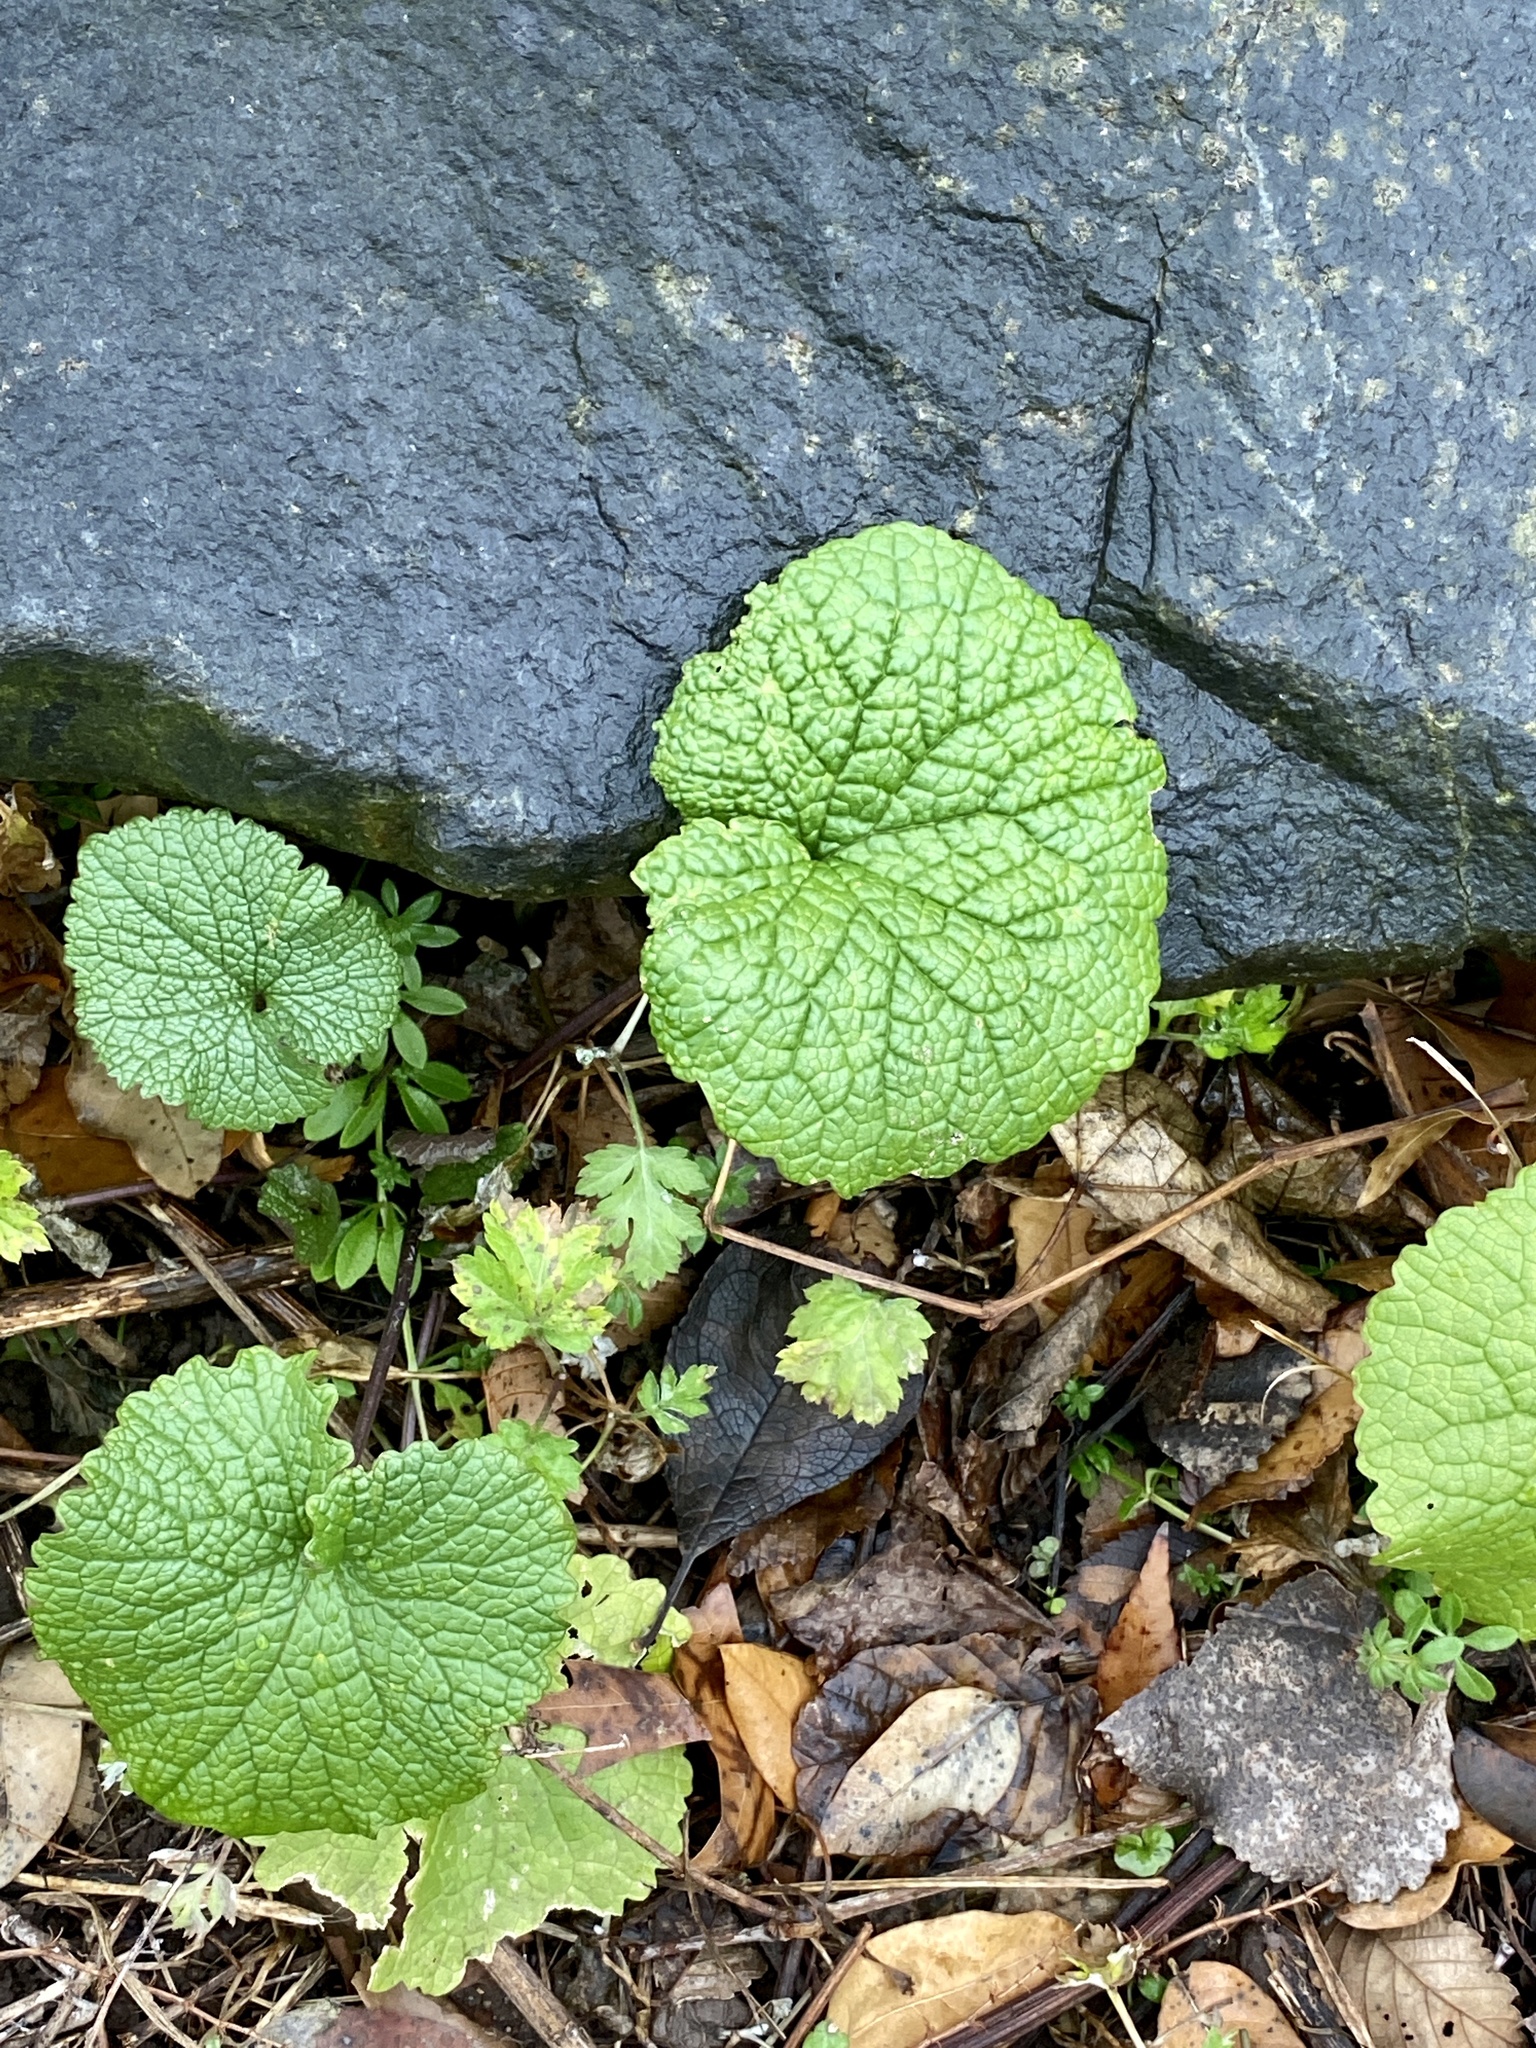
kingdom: Plantae
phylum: Tracheophyta
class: Magnoliopsida
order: Brassicales
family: Brassicaceae
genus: Alliaria
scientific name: Alliaria petiolata
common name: Garlic mustard
